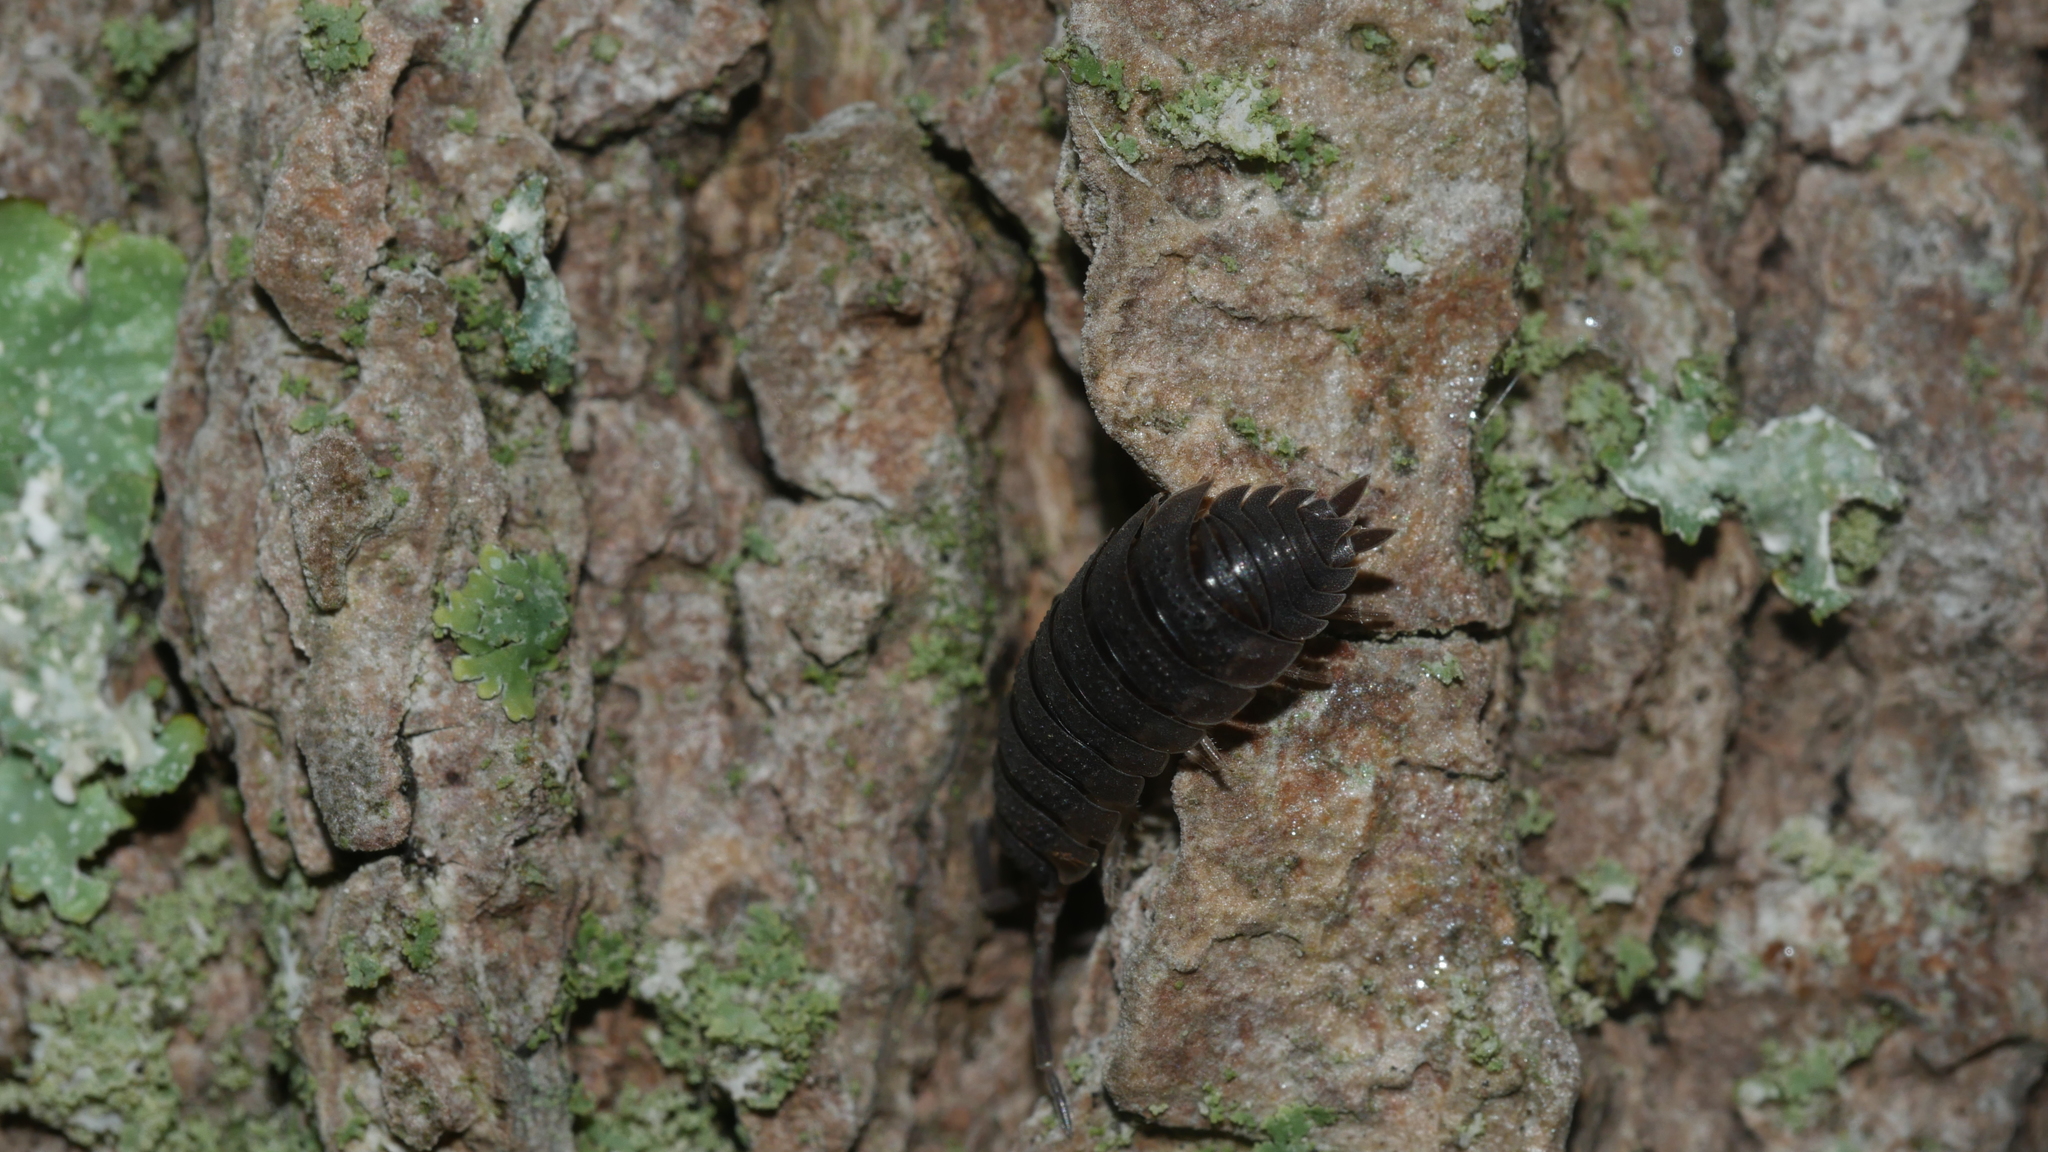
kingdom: Animalia
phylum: Arthropoda
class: Malacostraca
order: Isopoda
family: Porcellionidae
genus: Porcellio
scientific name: Porcellio scaber
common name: Common rough woodlouse
